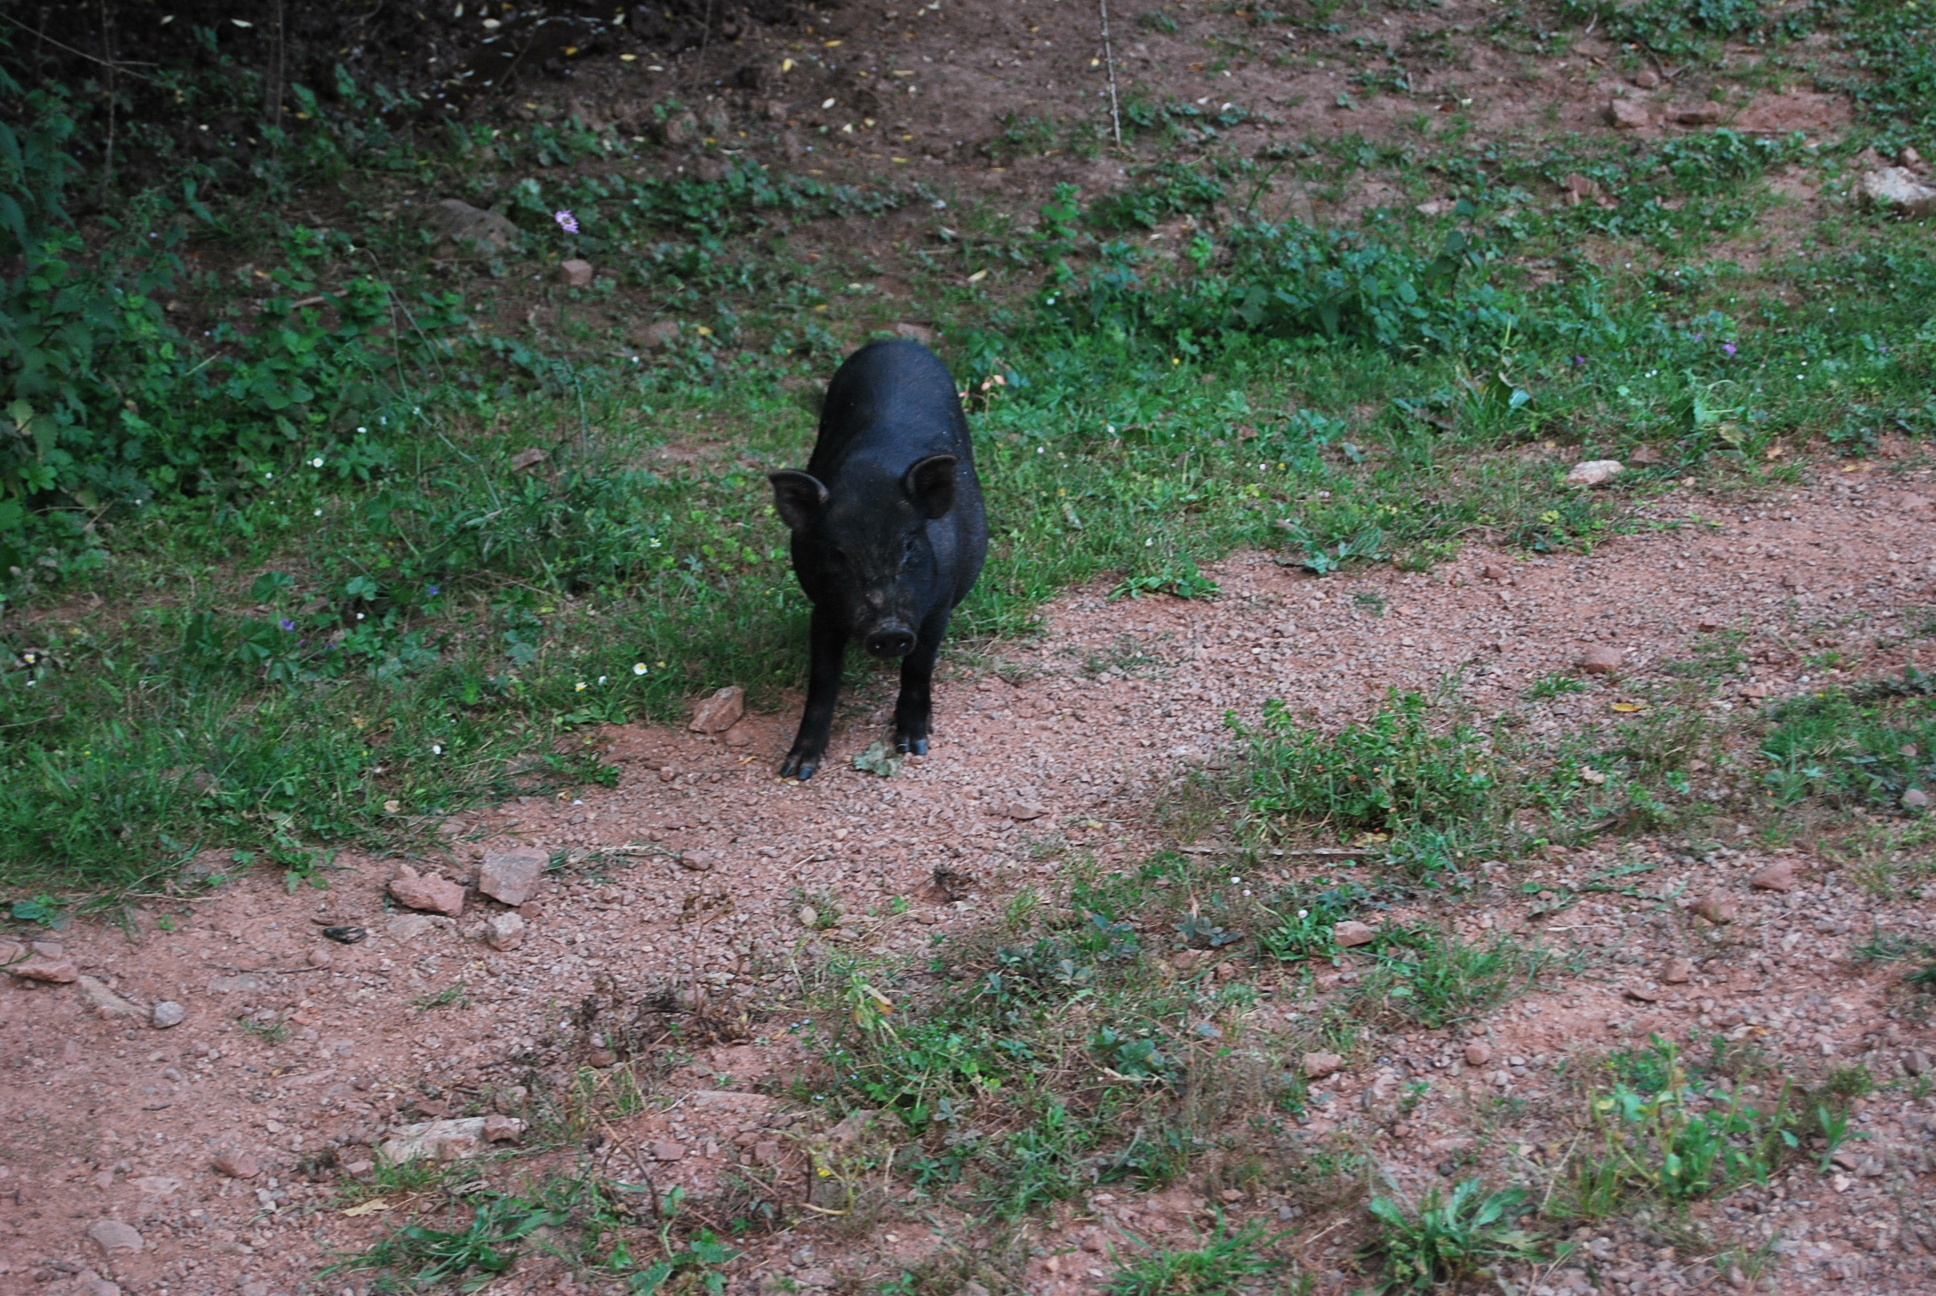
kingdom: Animalia
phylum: Chordata
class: Mammalia
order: Artiodactyla
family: Suidae
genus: Sus
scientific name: Sus scrofa
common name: Wild boar
